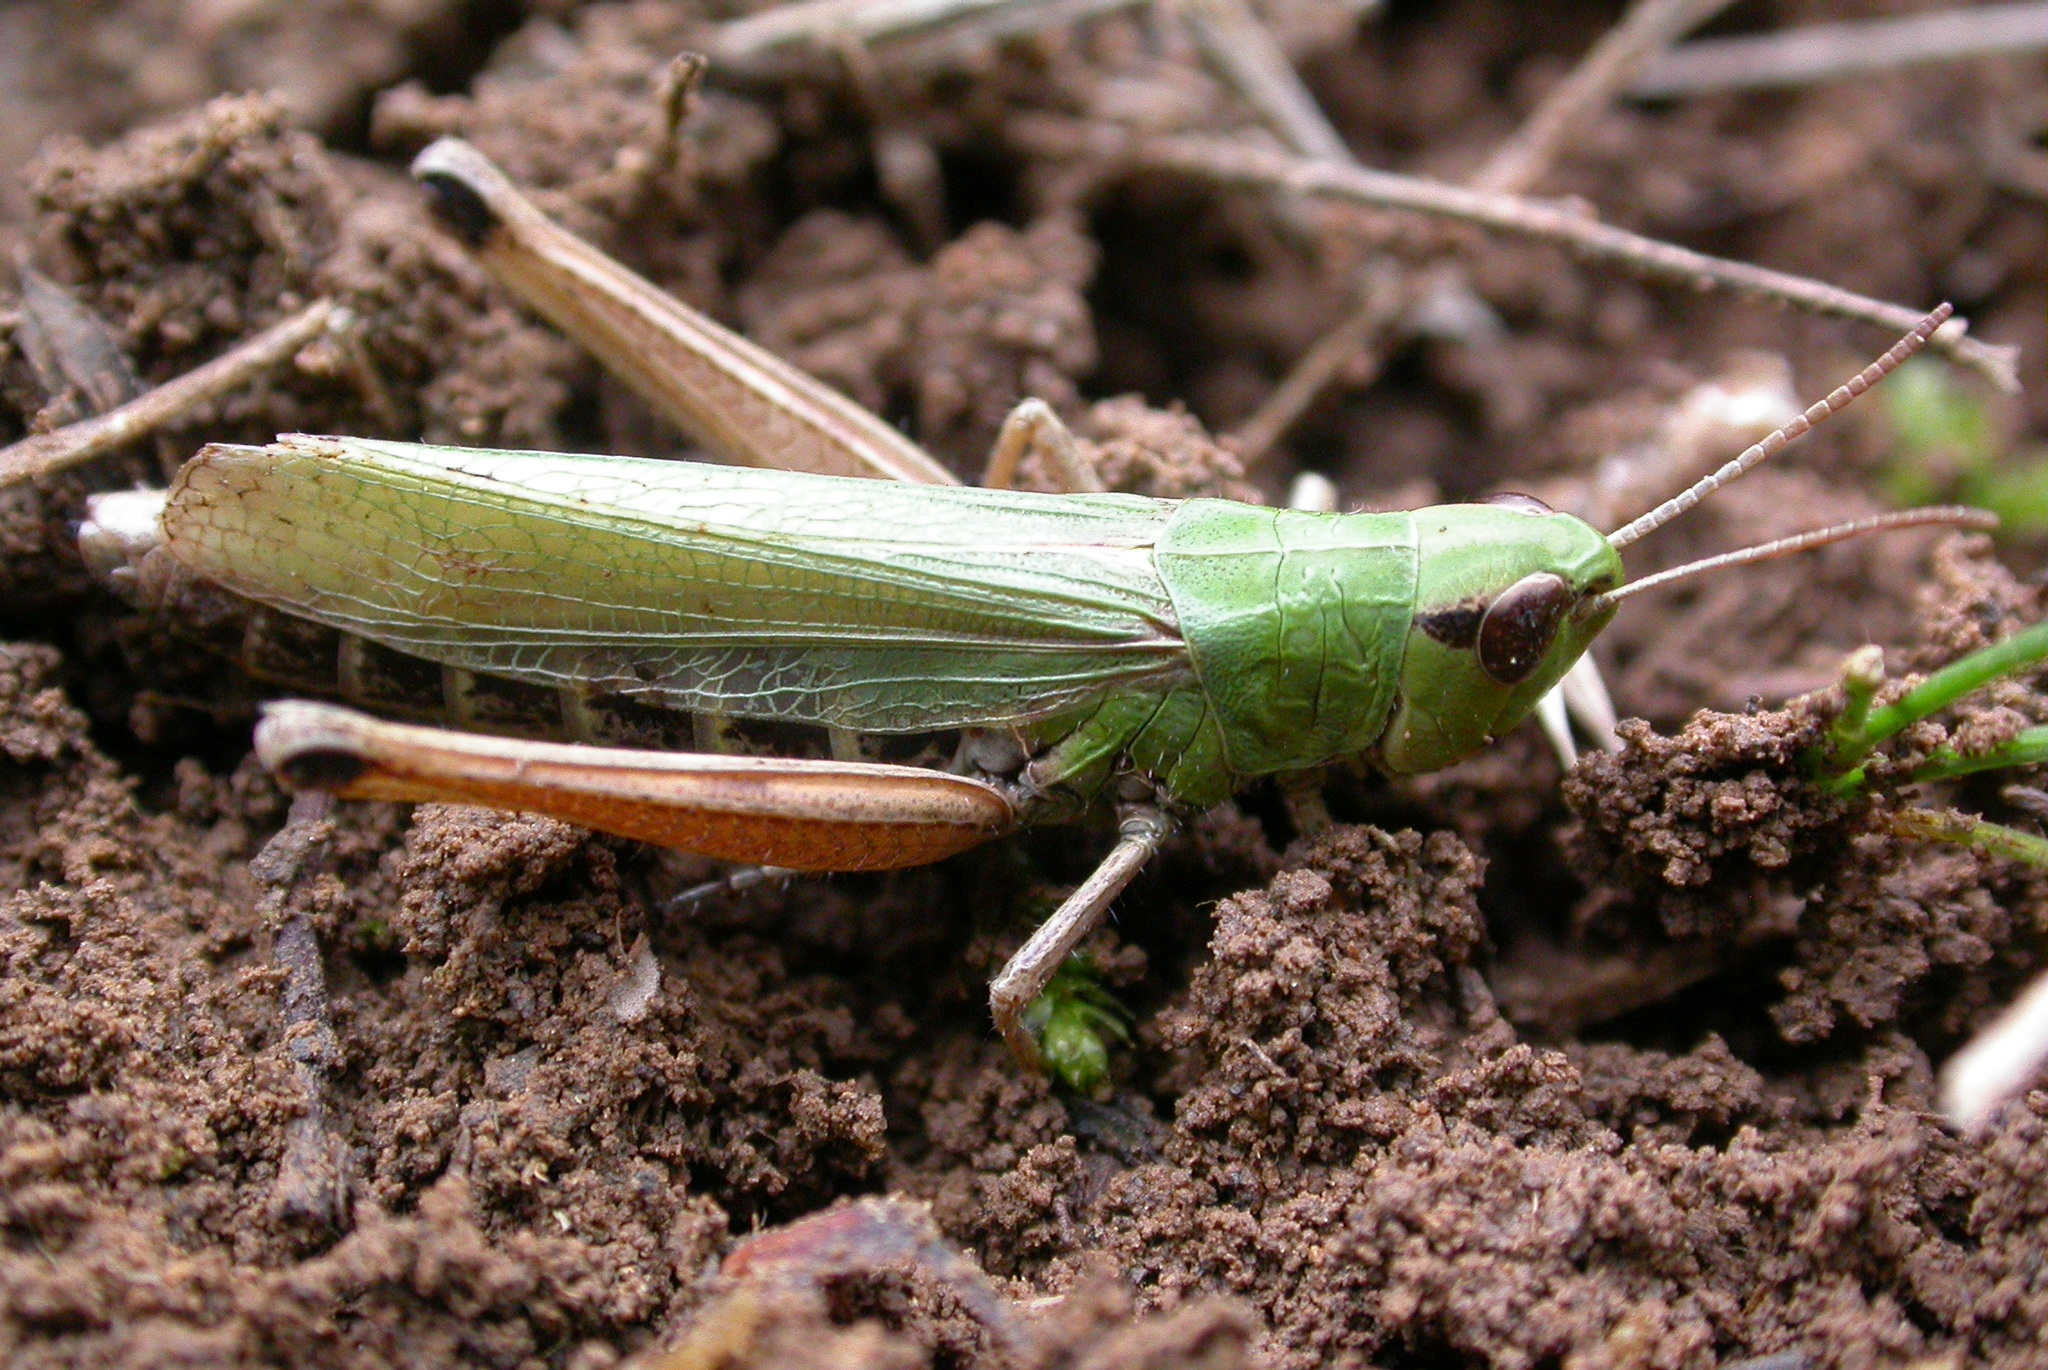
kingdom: Animalia
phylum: Arthropoda
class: Insecta
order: Orthoptera
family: Acrididae
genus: Pseudochorthippus
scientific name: Pseudochorthippus parallelus
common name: Meadow grasshopper
